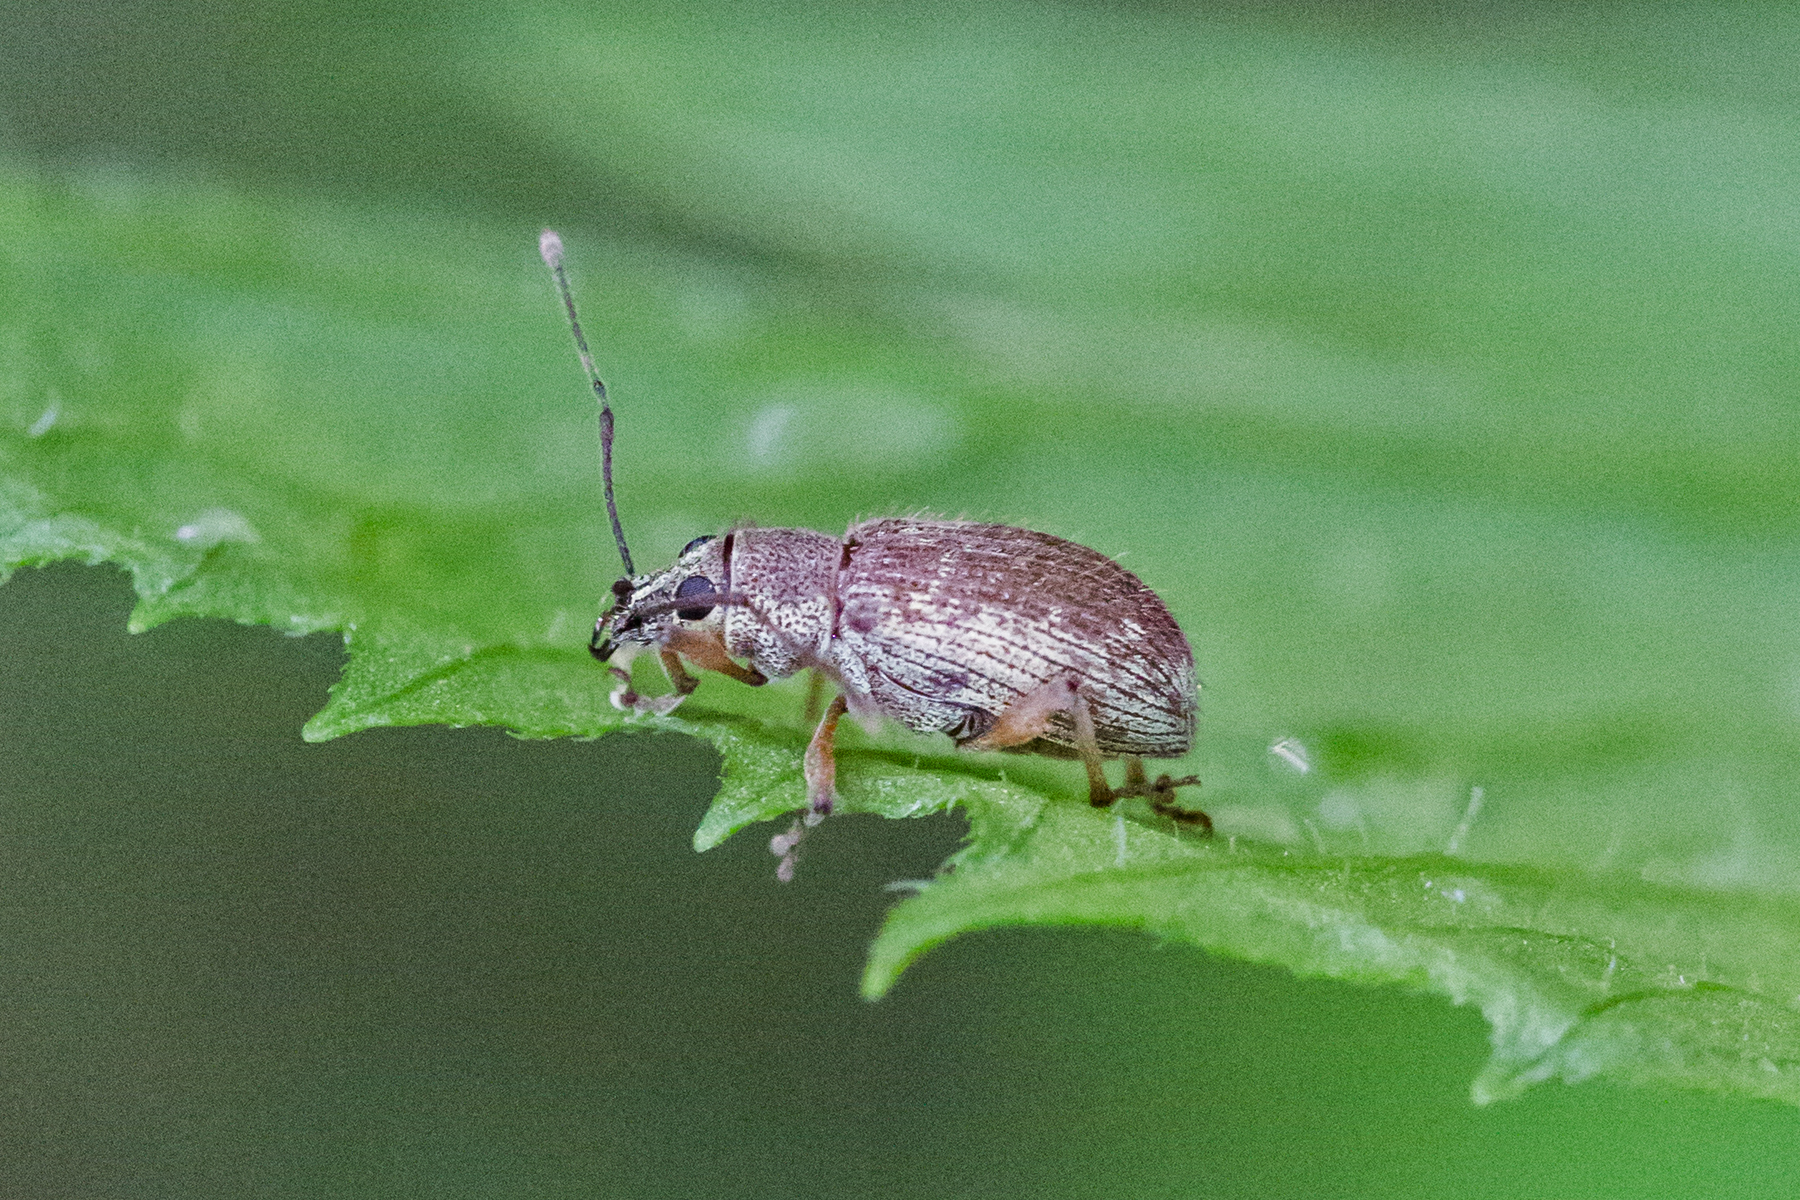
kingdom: Animalia
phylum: Arthropoda
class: Insecta
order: Coleoptera
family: Curculionidae
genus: Cyrtepistomus
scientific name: Cyrtepistomus castaneus
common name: Weevil
